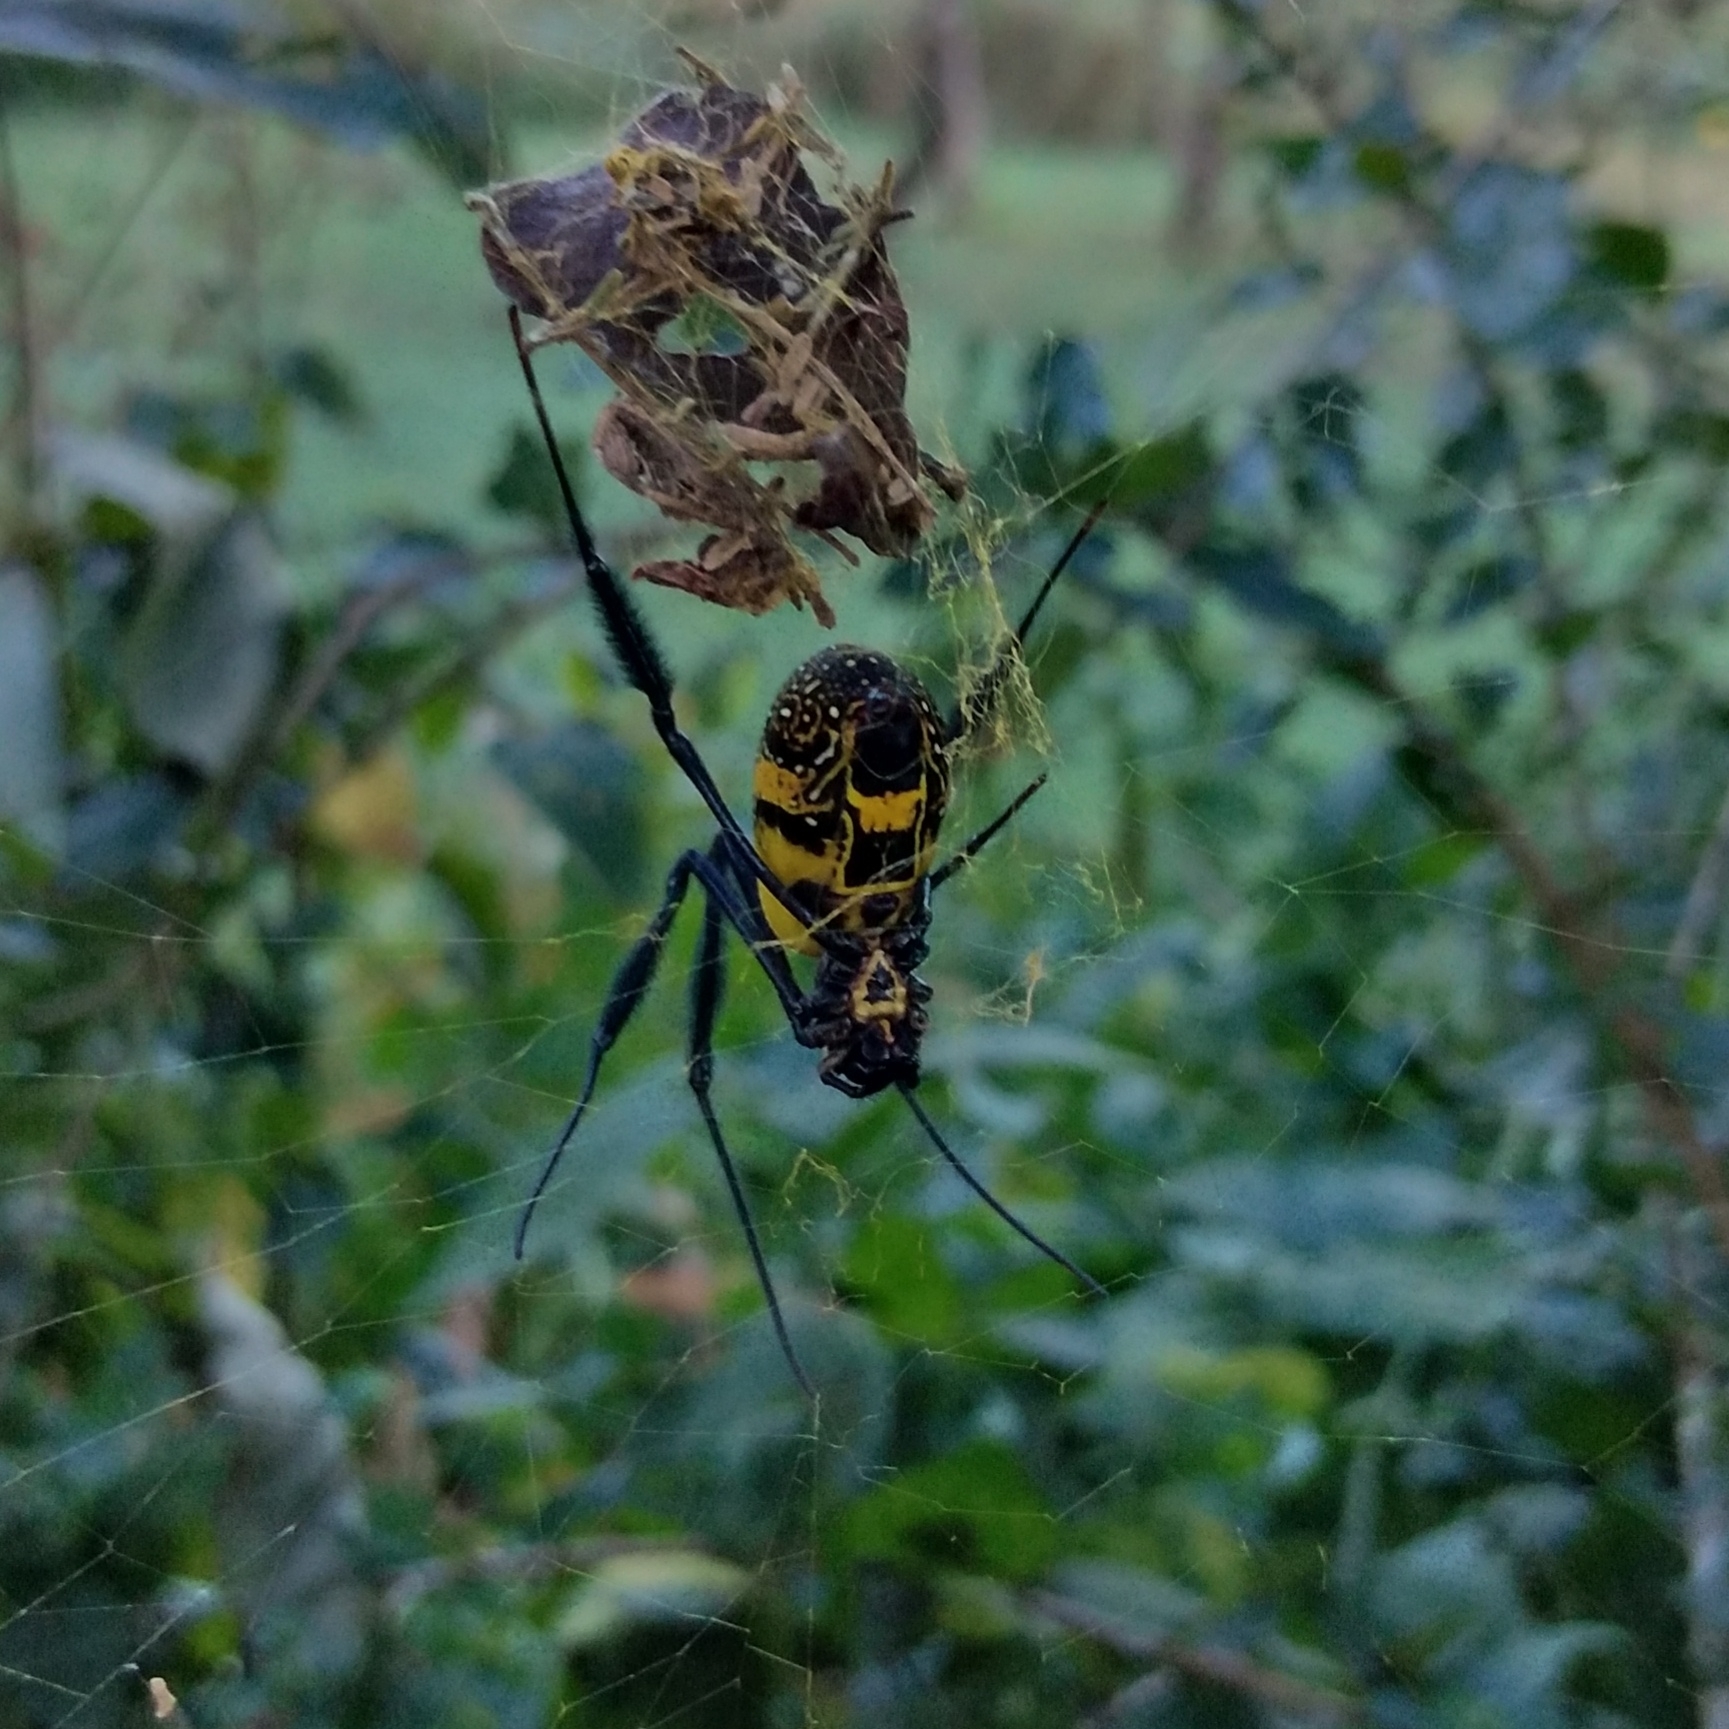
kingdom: Animalia
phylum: Arthropoda
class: Arachnida
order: Araneae
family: Araneidae
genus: Trichonephila
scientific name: Trichonephila fenestrata
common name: Hairy golden orb weaver
